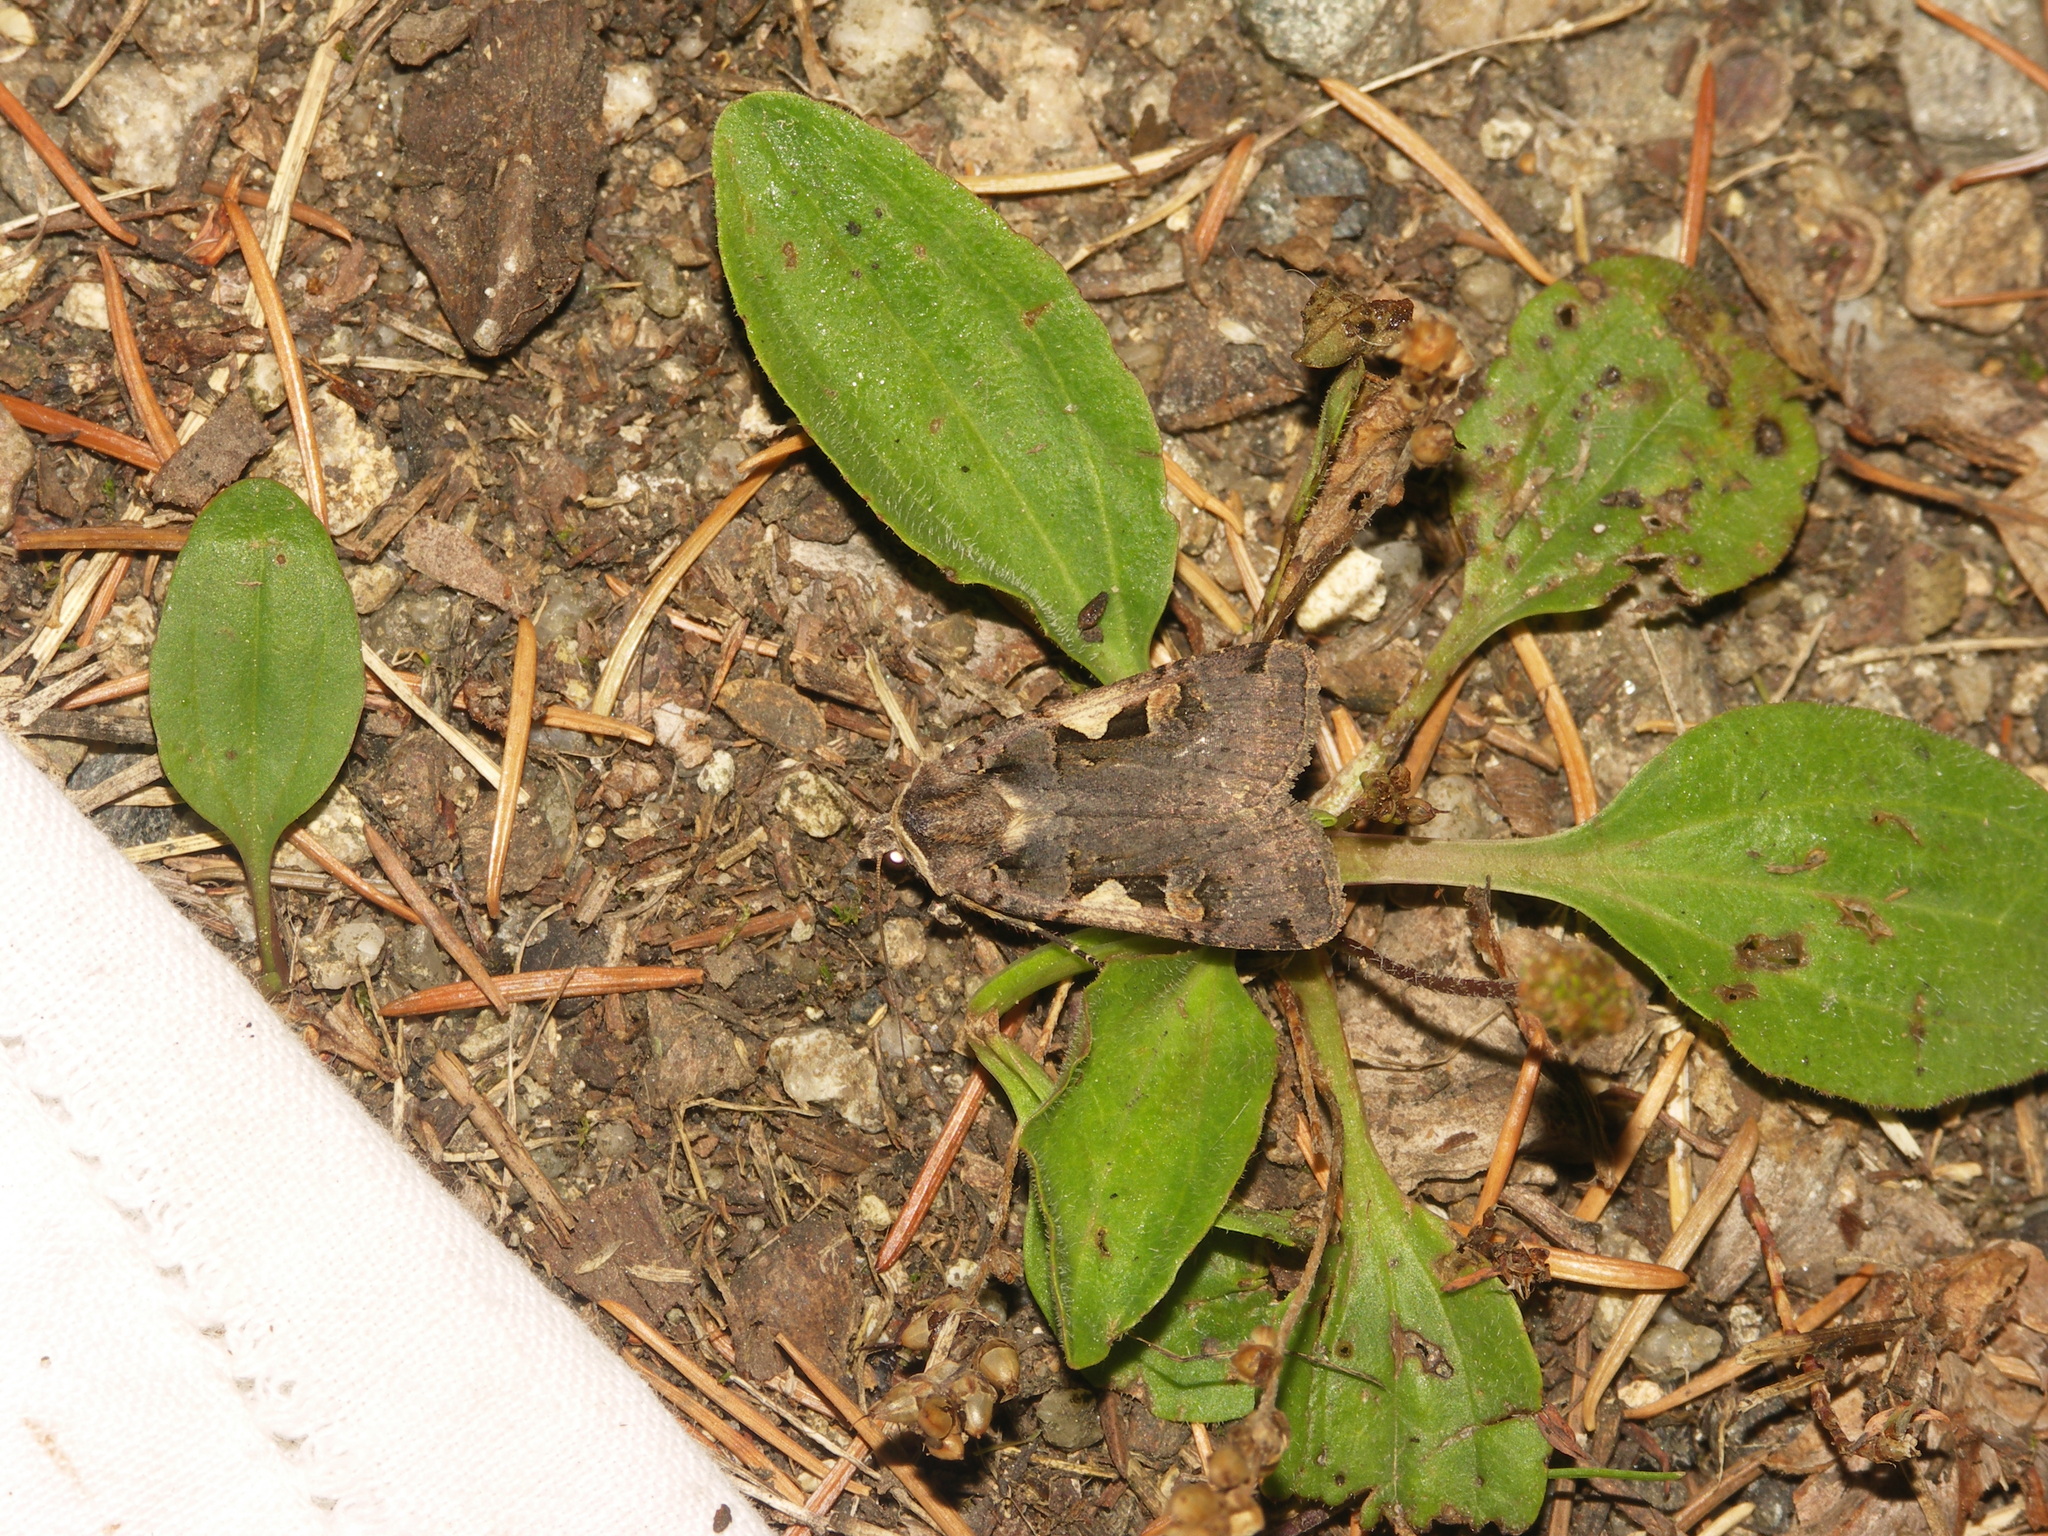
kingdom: Animalia
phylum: Arthropoda
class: Insecta
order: Lepidoptera
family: Noctuidae
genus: Xestia
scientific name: Xestia c-nigrum
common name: Setaceous hebrew character
